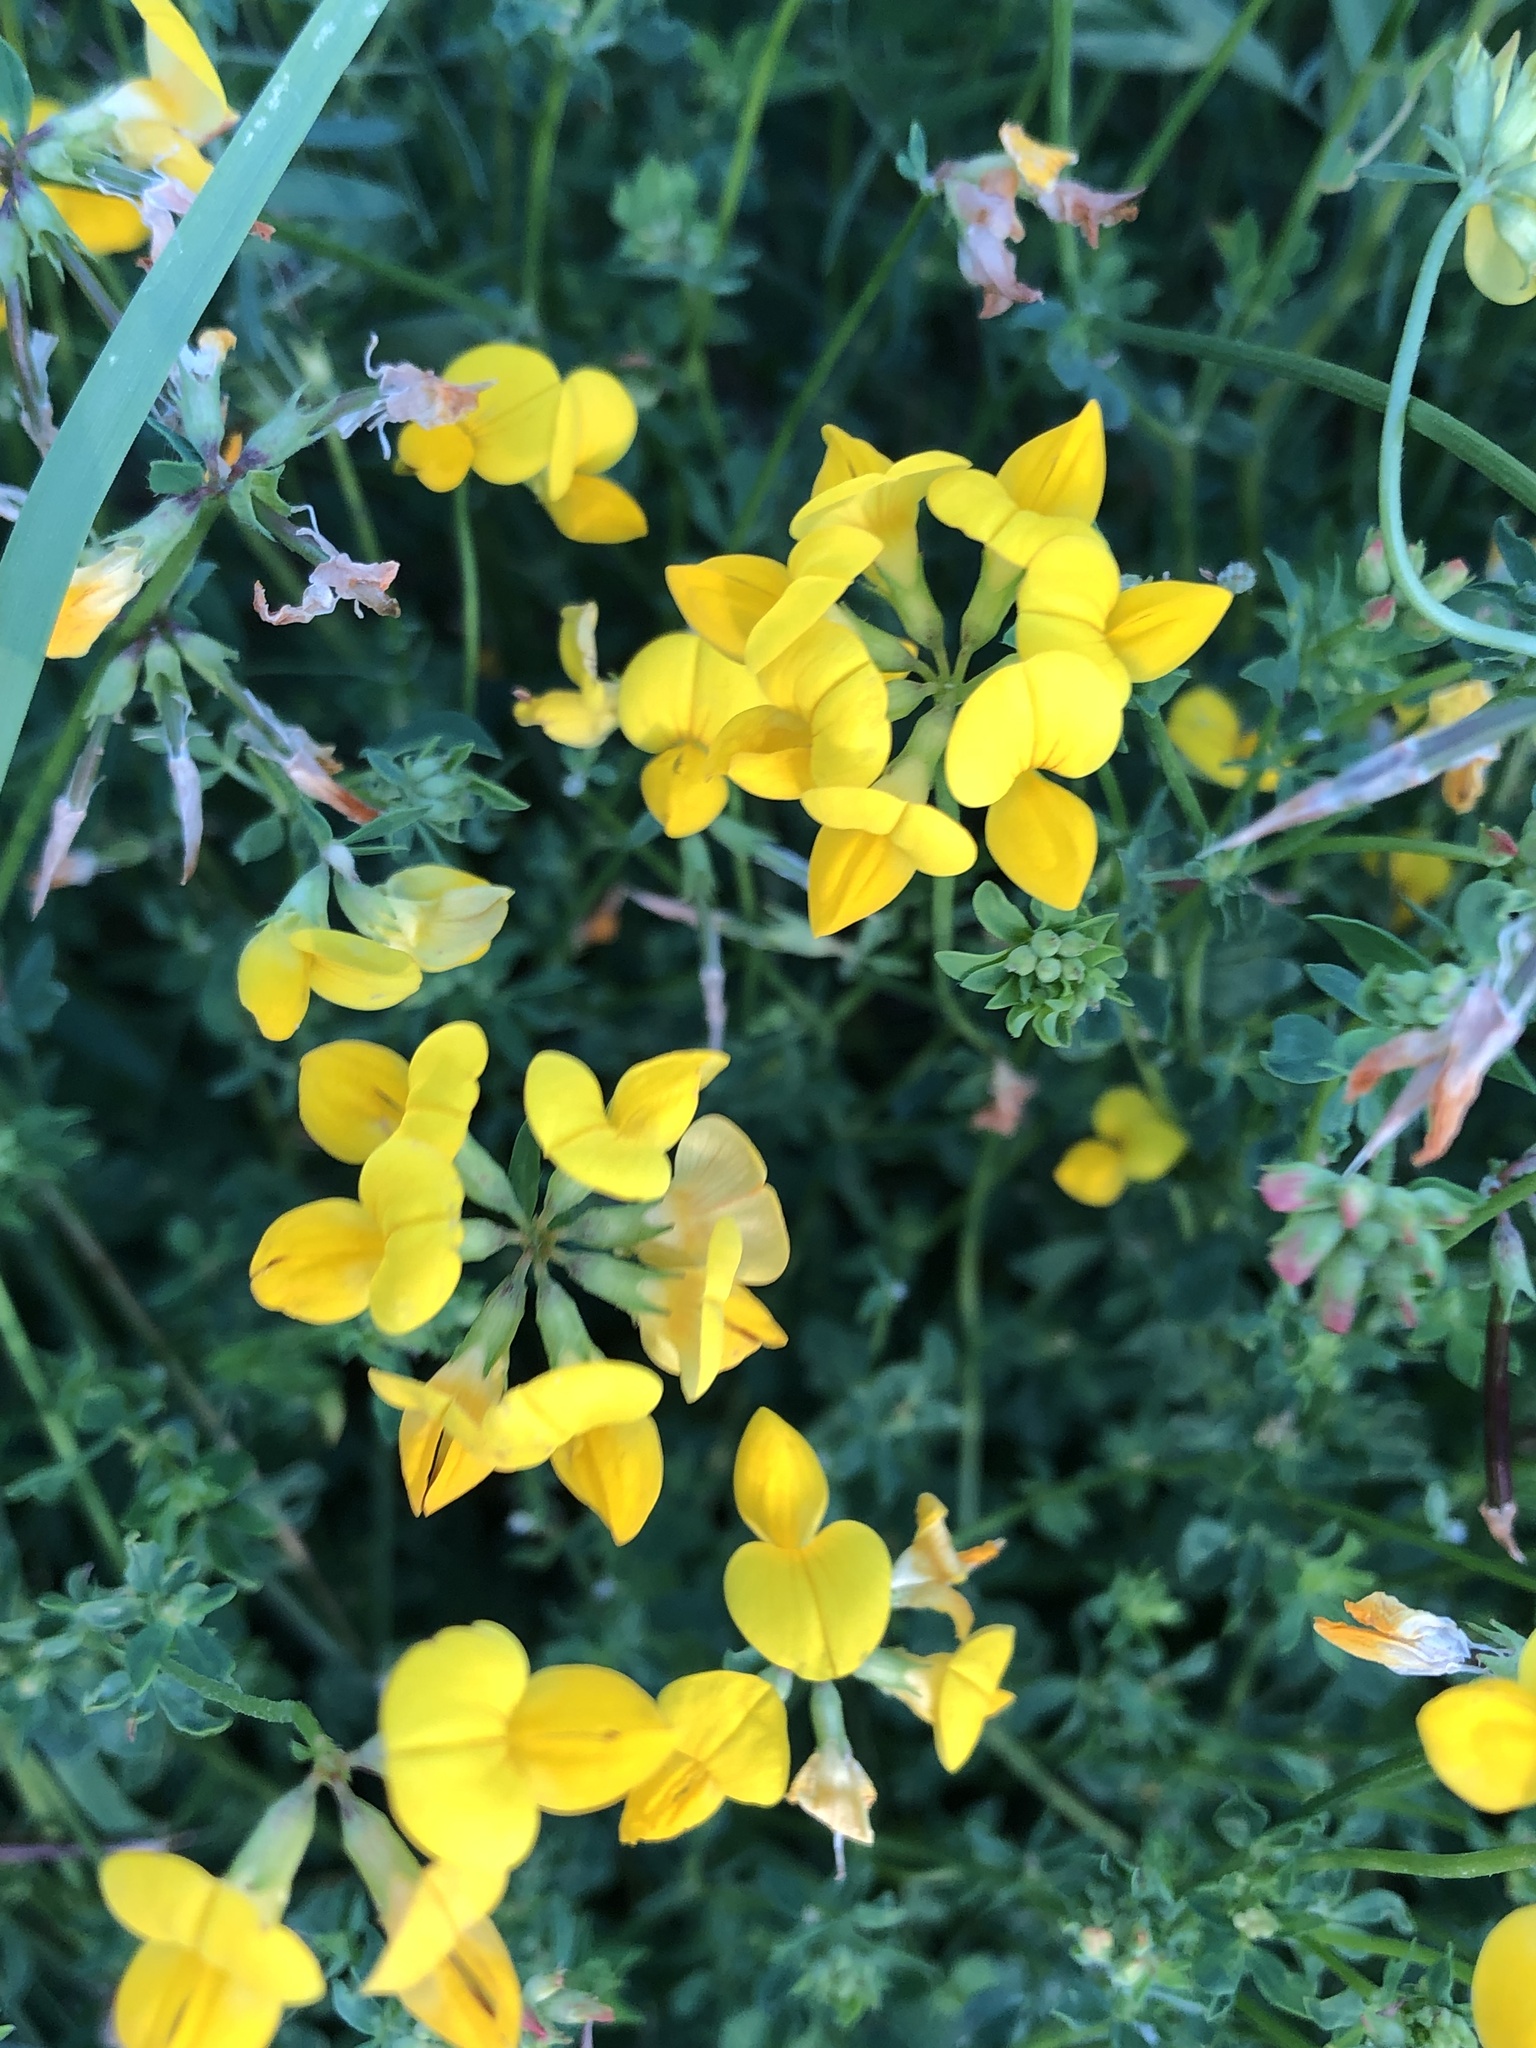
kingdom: Plantae
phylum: Tracheophyta
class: Magnoliopsida
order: Fabales
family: Fabaceae
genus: Lotus
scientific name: Lotus corniculatus
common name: Common bird's-foot-trefoil
